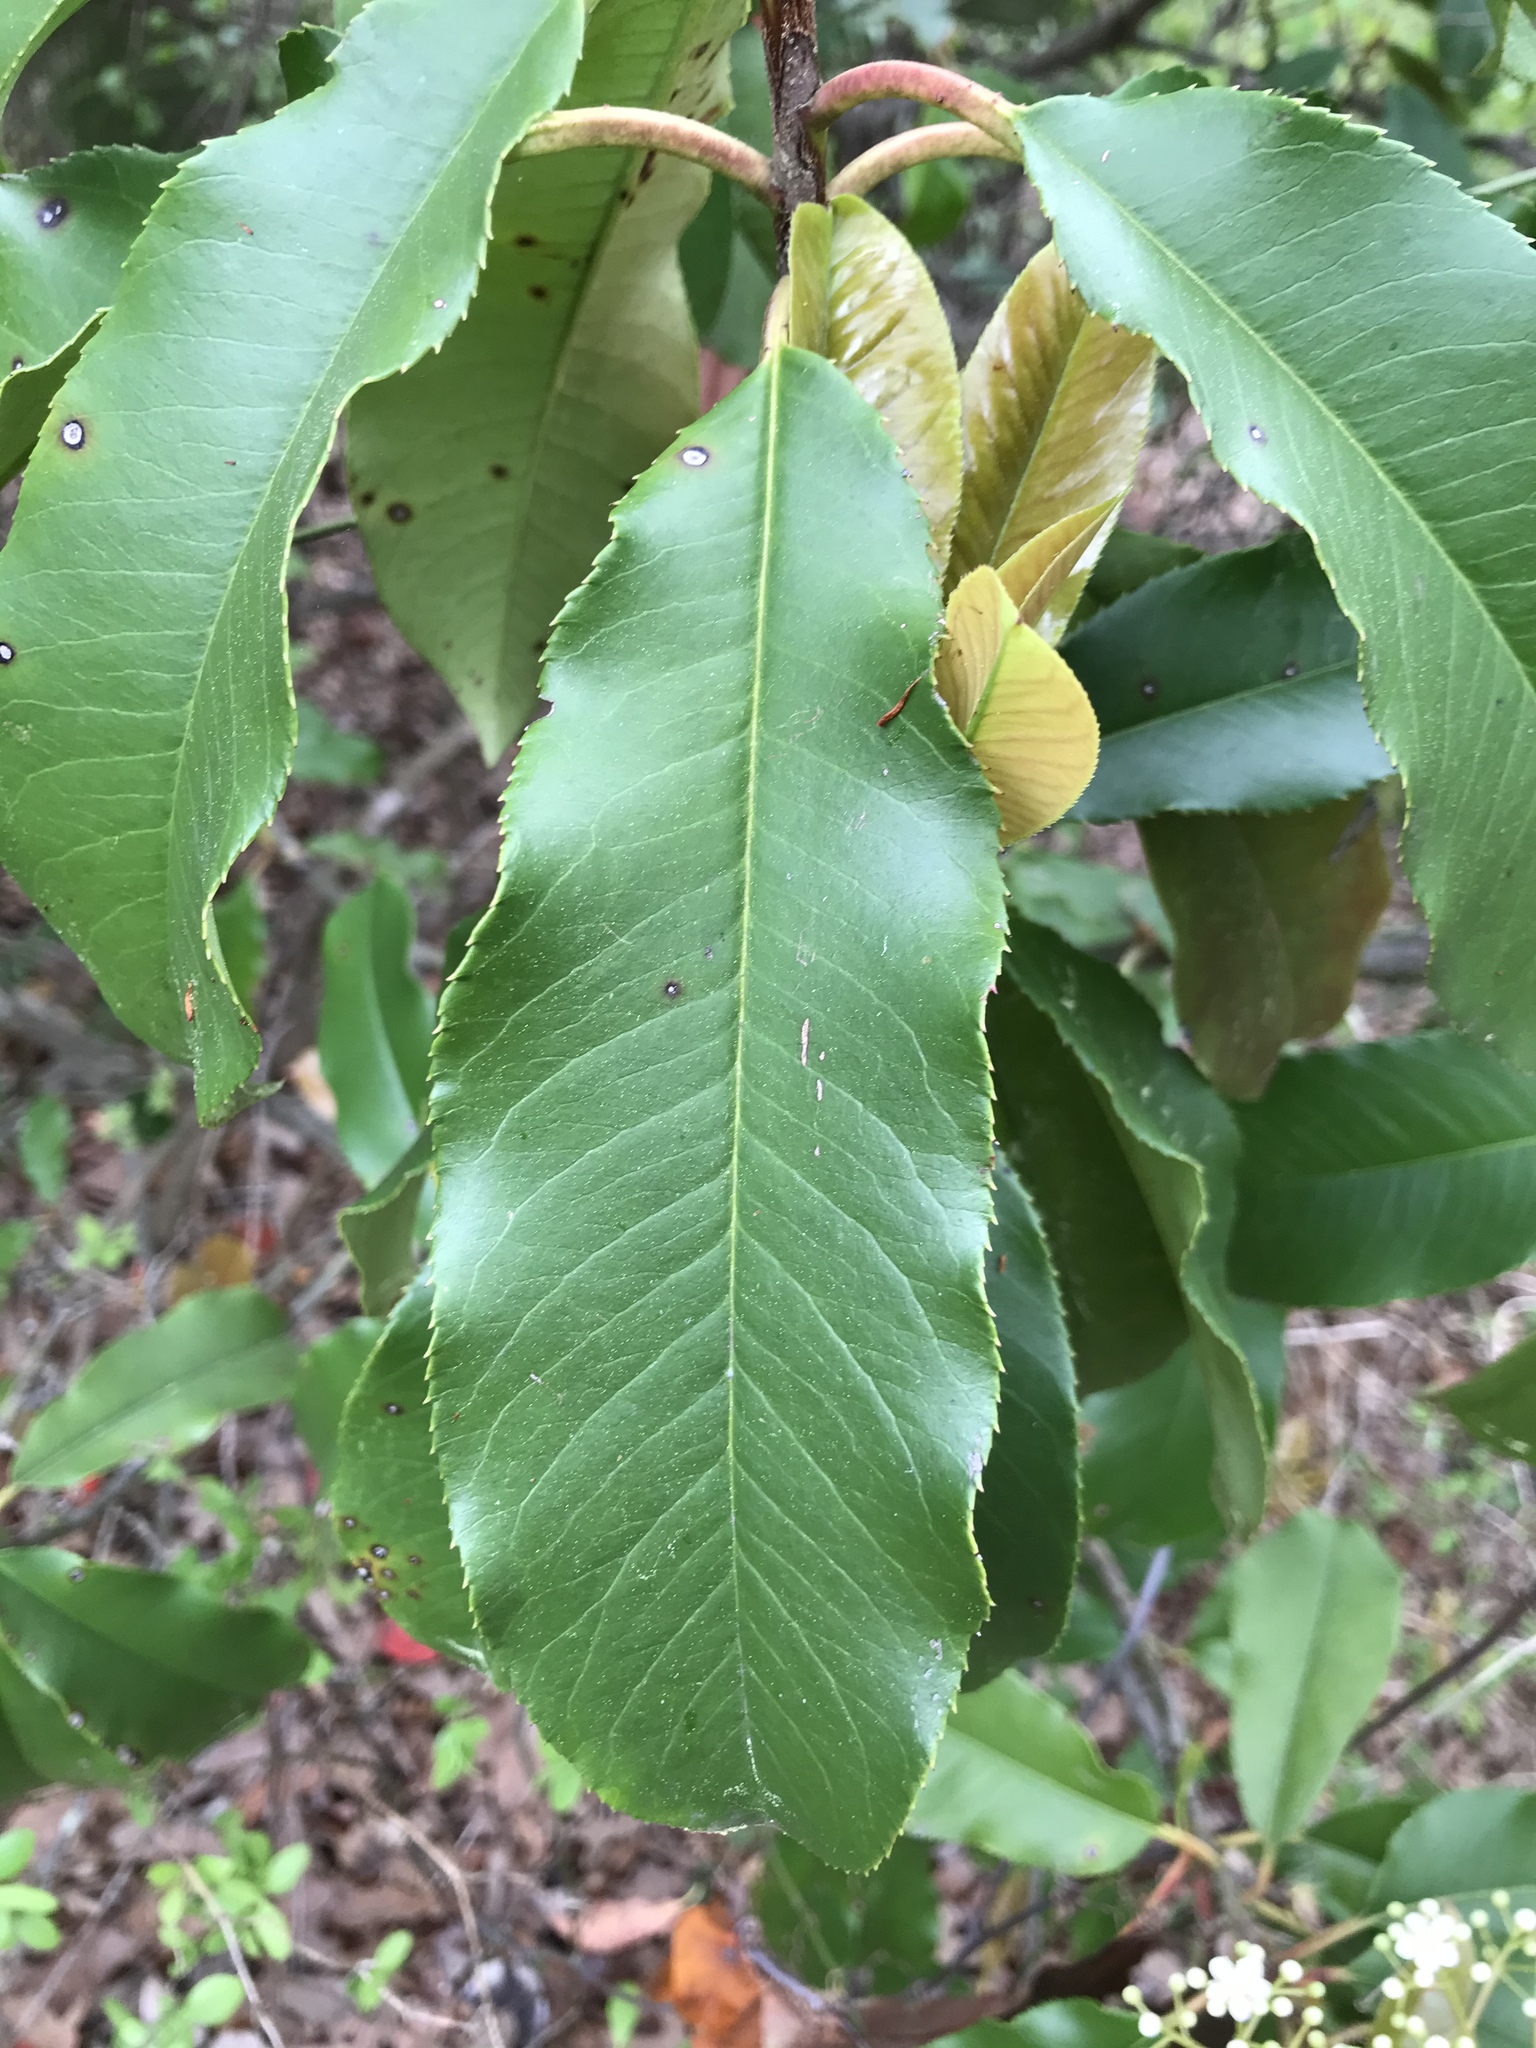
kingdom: Plantae
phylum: Tracheophyta
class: Magnoliopsida
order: Rosales
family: Rosaceae
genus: Photinia
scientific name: Photinia serratifolia
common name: Taiwanese photinia
